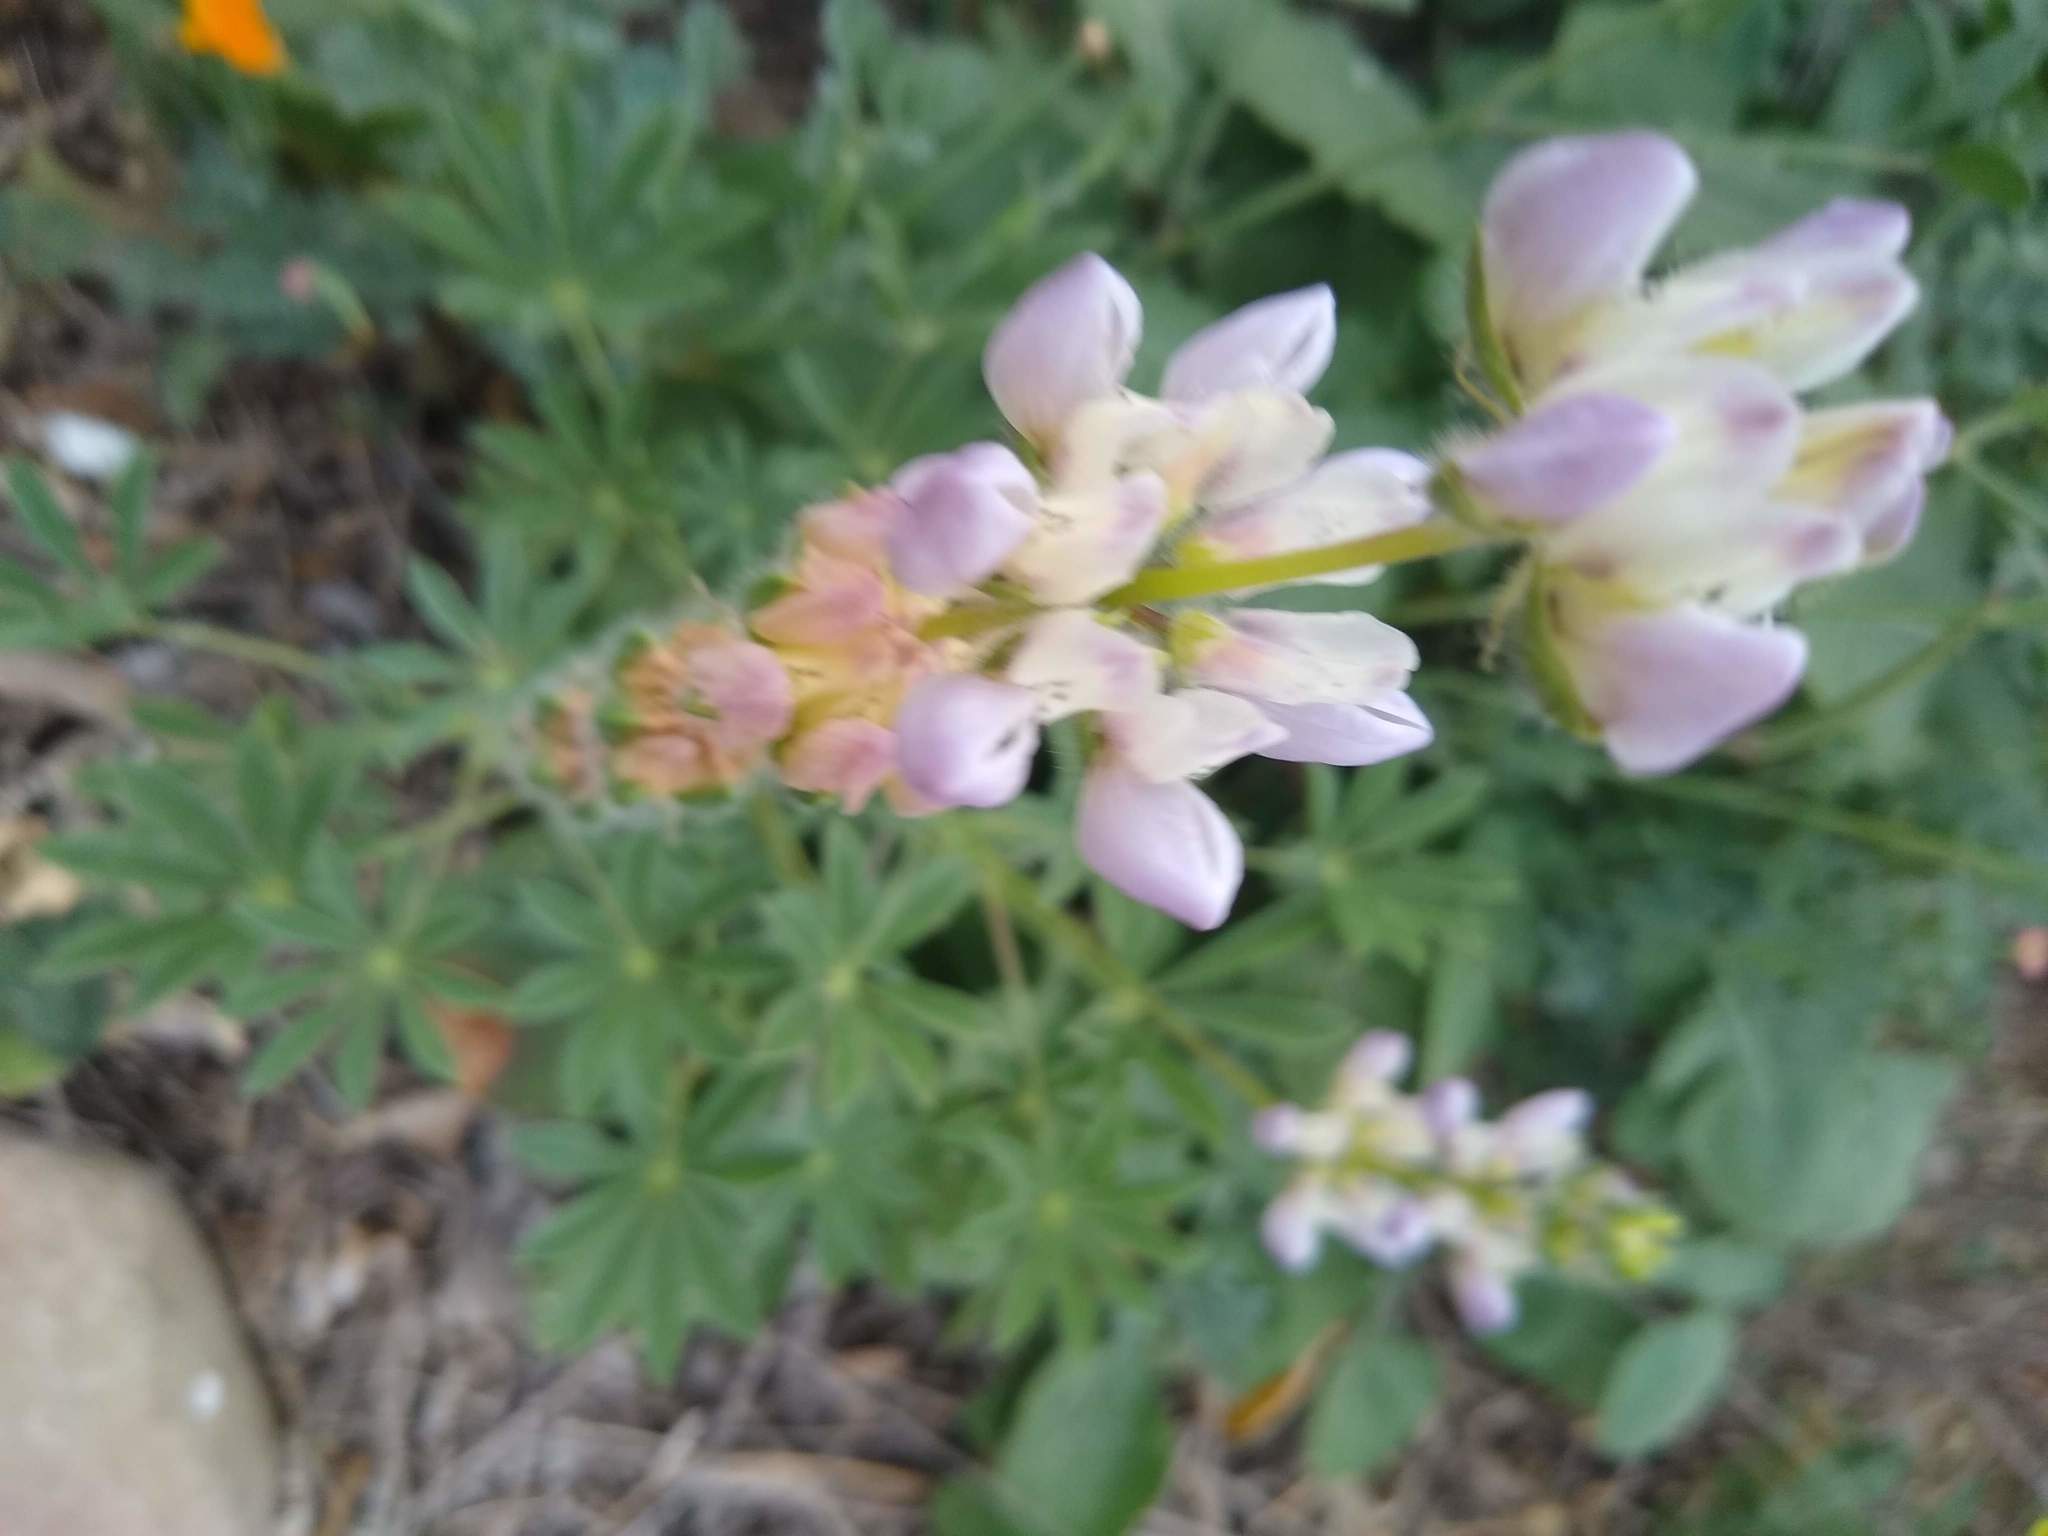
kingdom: Plantae
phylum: Tracheophyta
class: Magnoliopsida
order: Fabales
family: Fabaceae
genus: Lupinus
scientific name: Lupinus microcarpus
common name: Chick lupine
